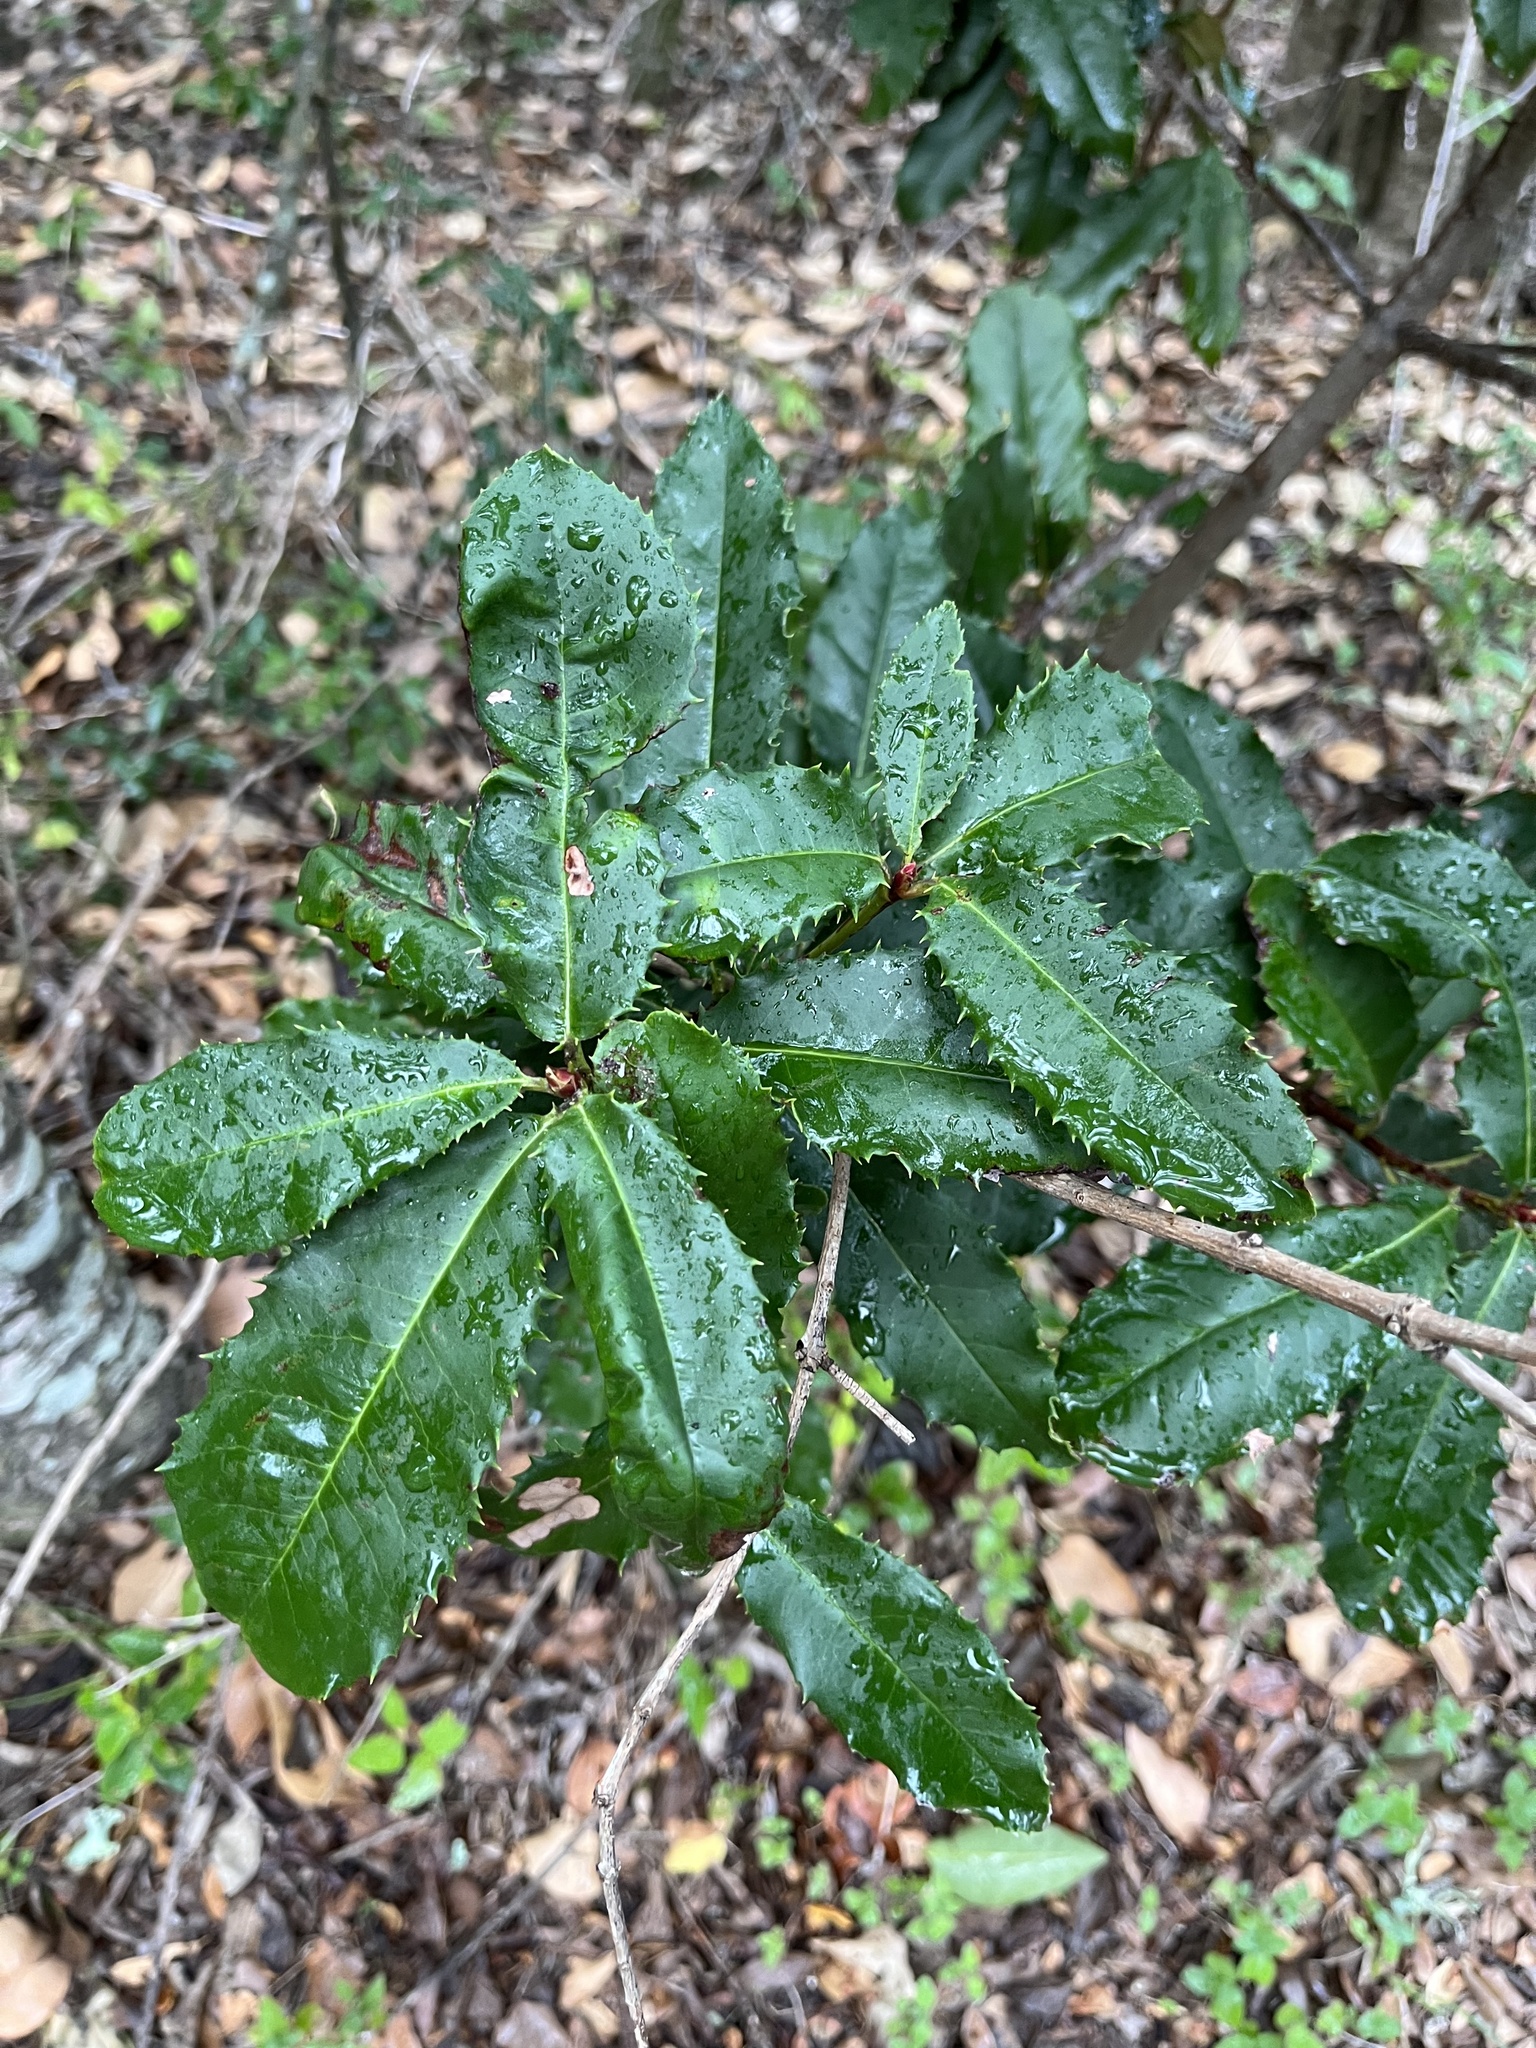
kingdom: Plantae
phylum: Tracheophyta
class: Magnoliopsida
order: Rosales
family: Rosaceae
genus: Photinia
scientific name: Photinia serratifolia
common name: Taiwanese photinia
